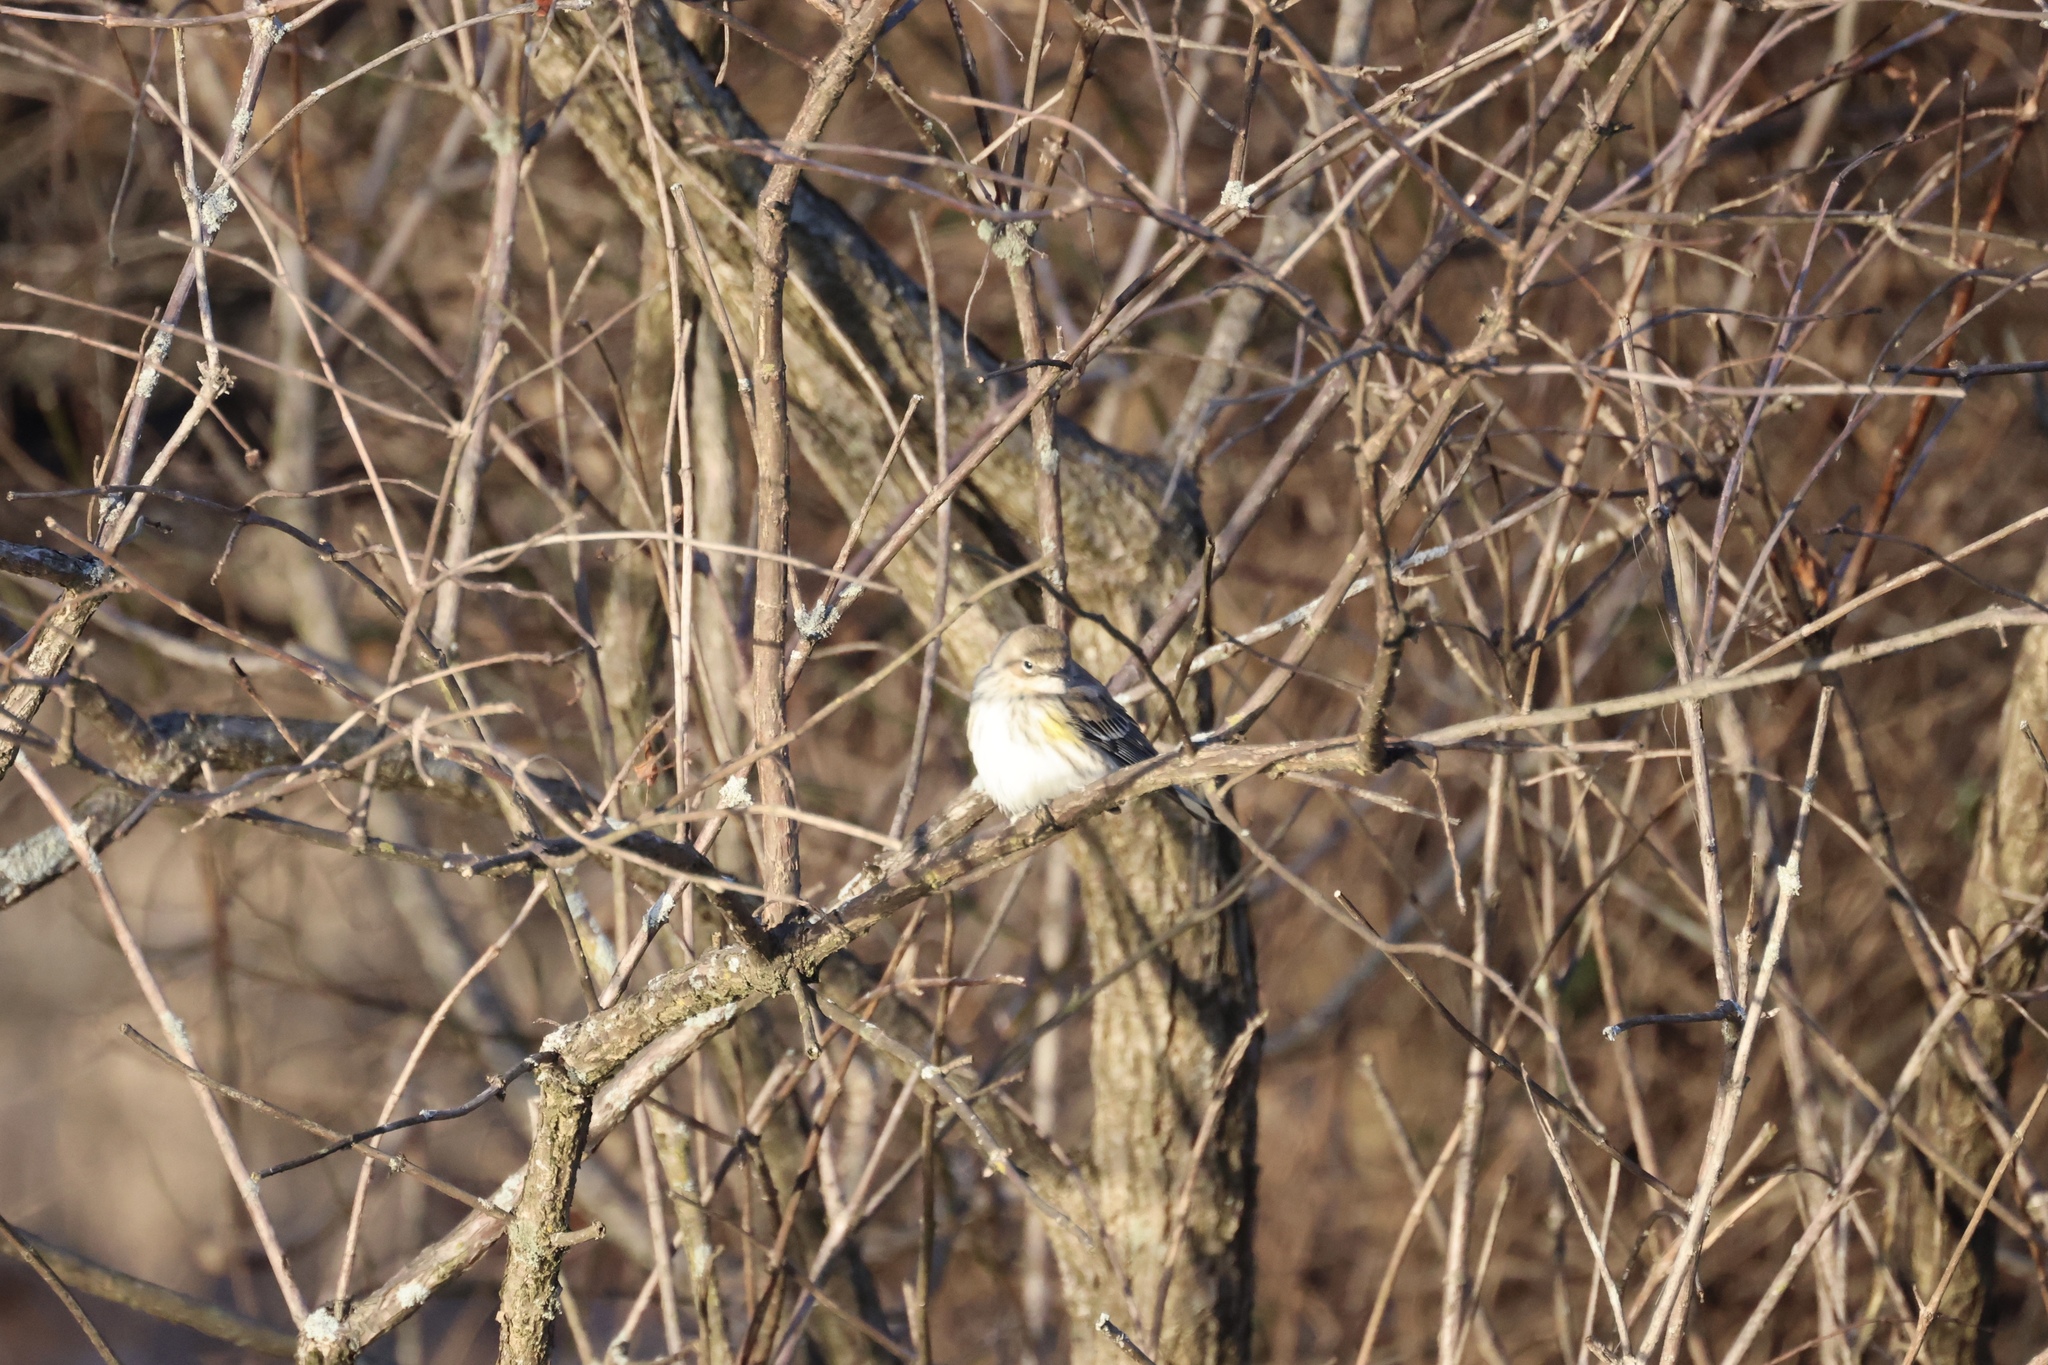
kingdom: Animalia
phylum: Chordata
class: Aves
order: Passeriformes
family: Parulidae
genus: Setophaga
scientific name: Setophaga coronata
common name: Myrtle warbler
